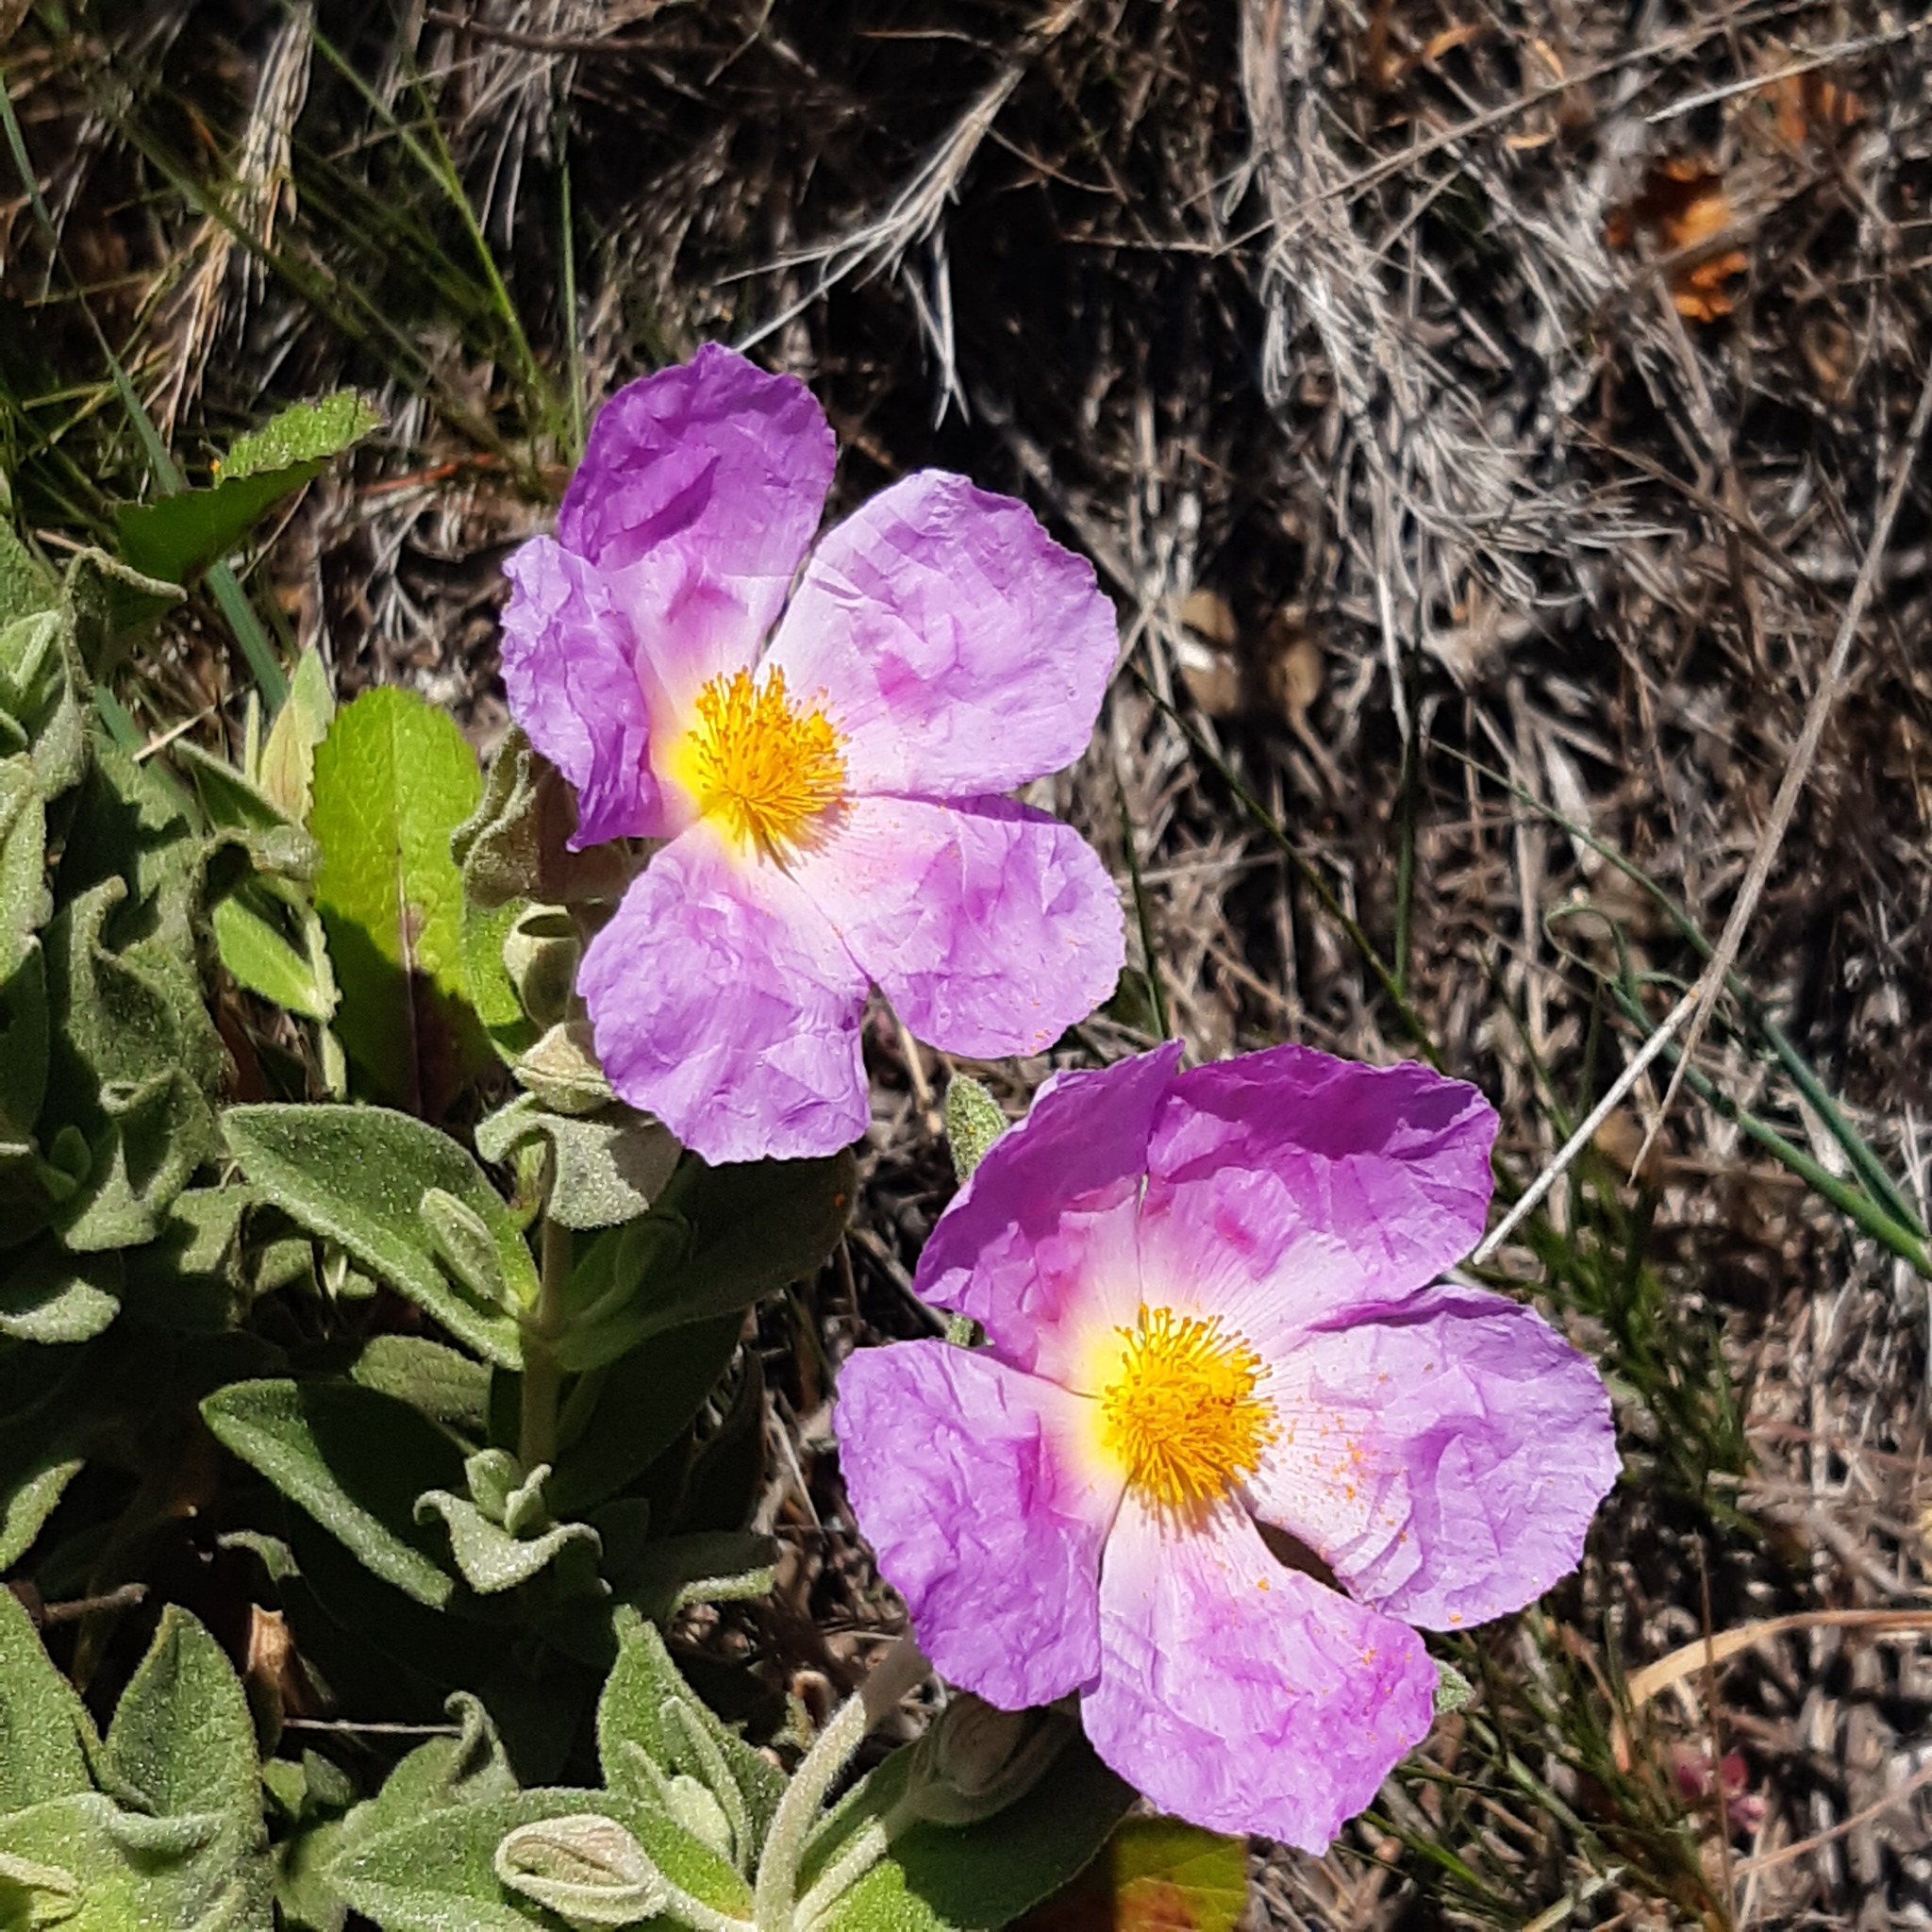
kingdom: Plantae
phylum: Tracheophyta
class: Magnoliopsida
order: Malvales
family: Cistaceae
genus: Cistus
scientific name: Cistus albidus
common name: White-leaf rock-rose
